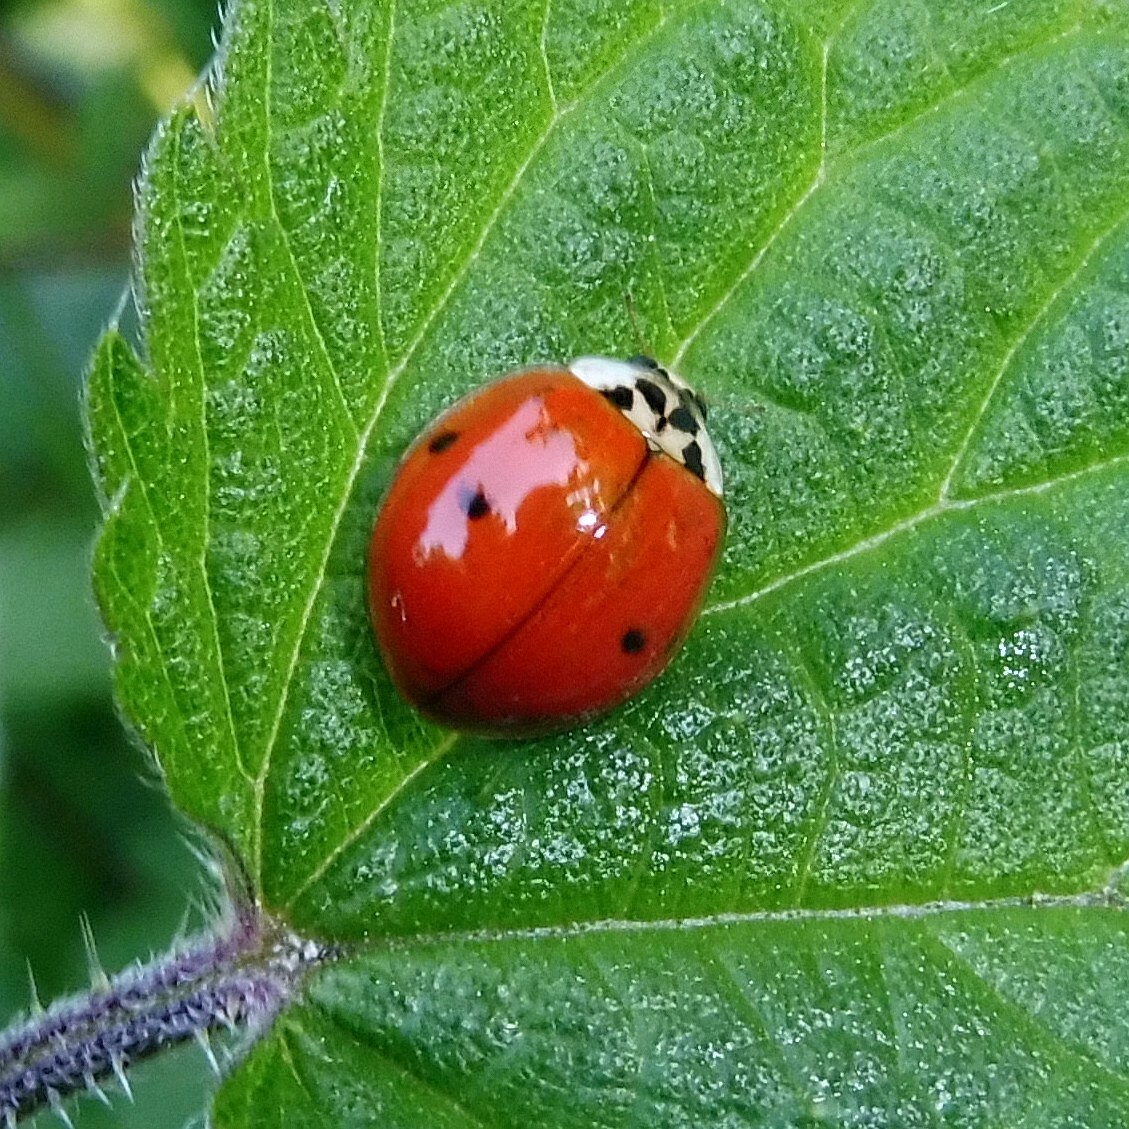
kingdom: Animalia
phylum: Arthropoda
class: Insecta
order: Coleoptera
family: Coccinellidae
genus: Harmonia
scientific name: Harmonia axyridis
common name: Harlequin ladybird
